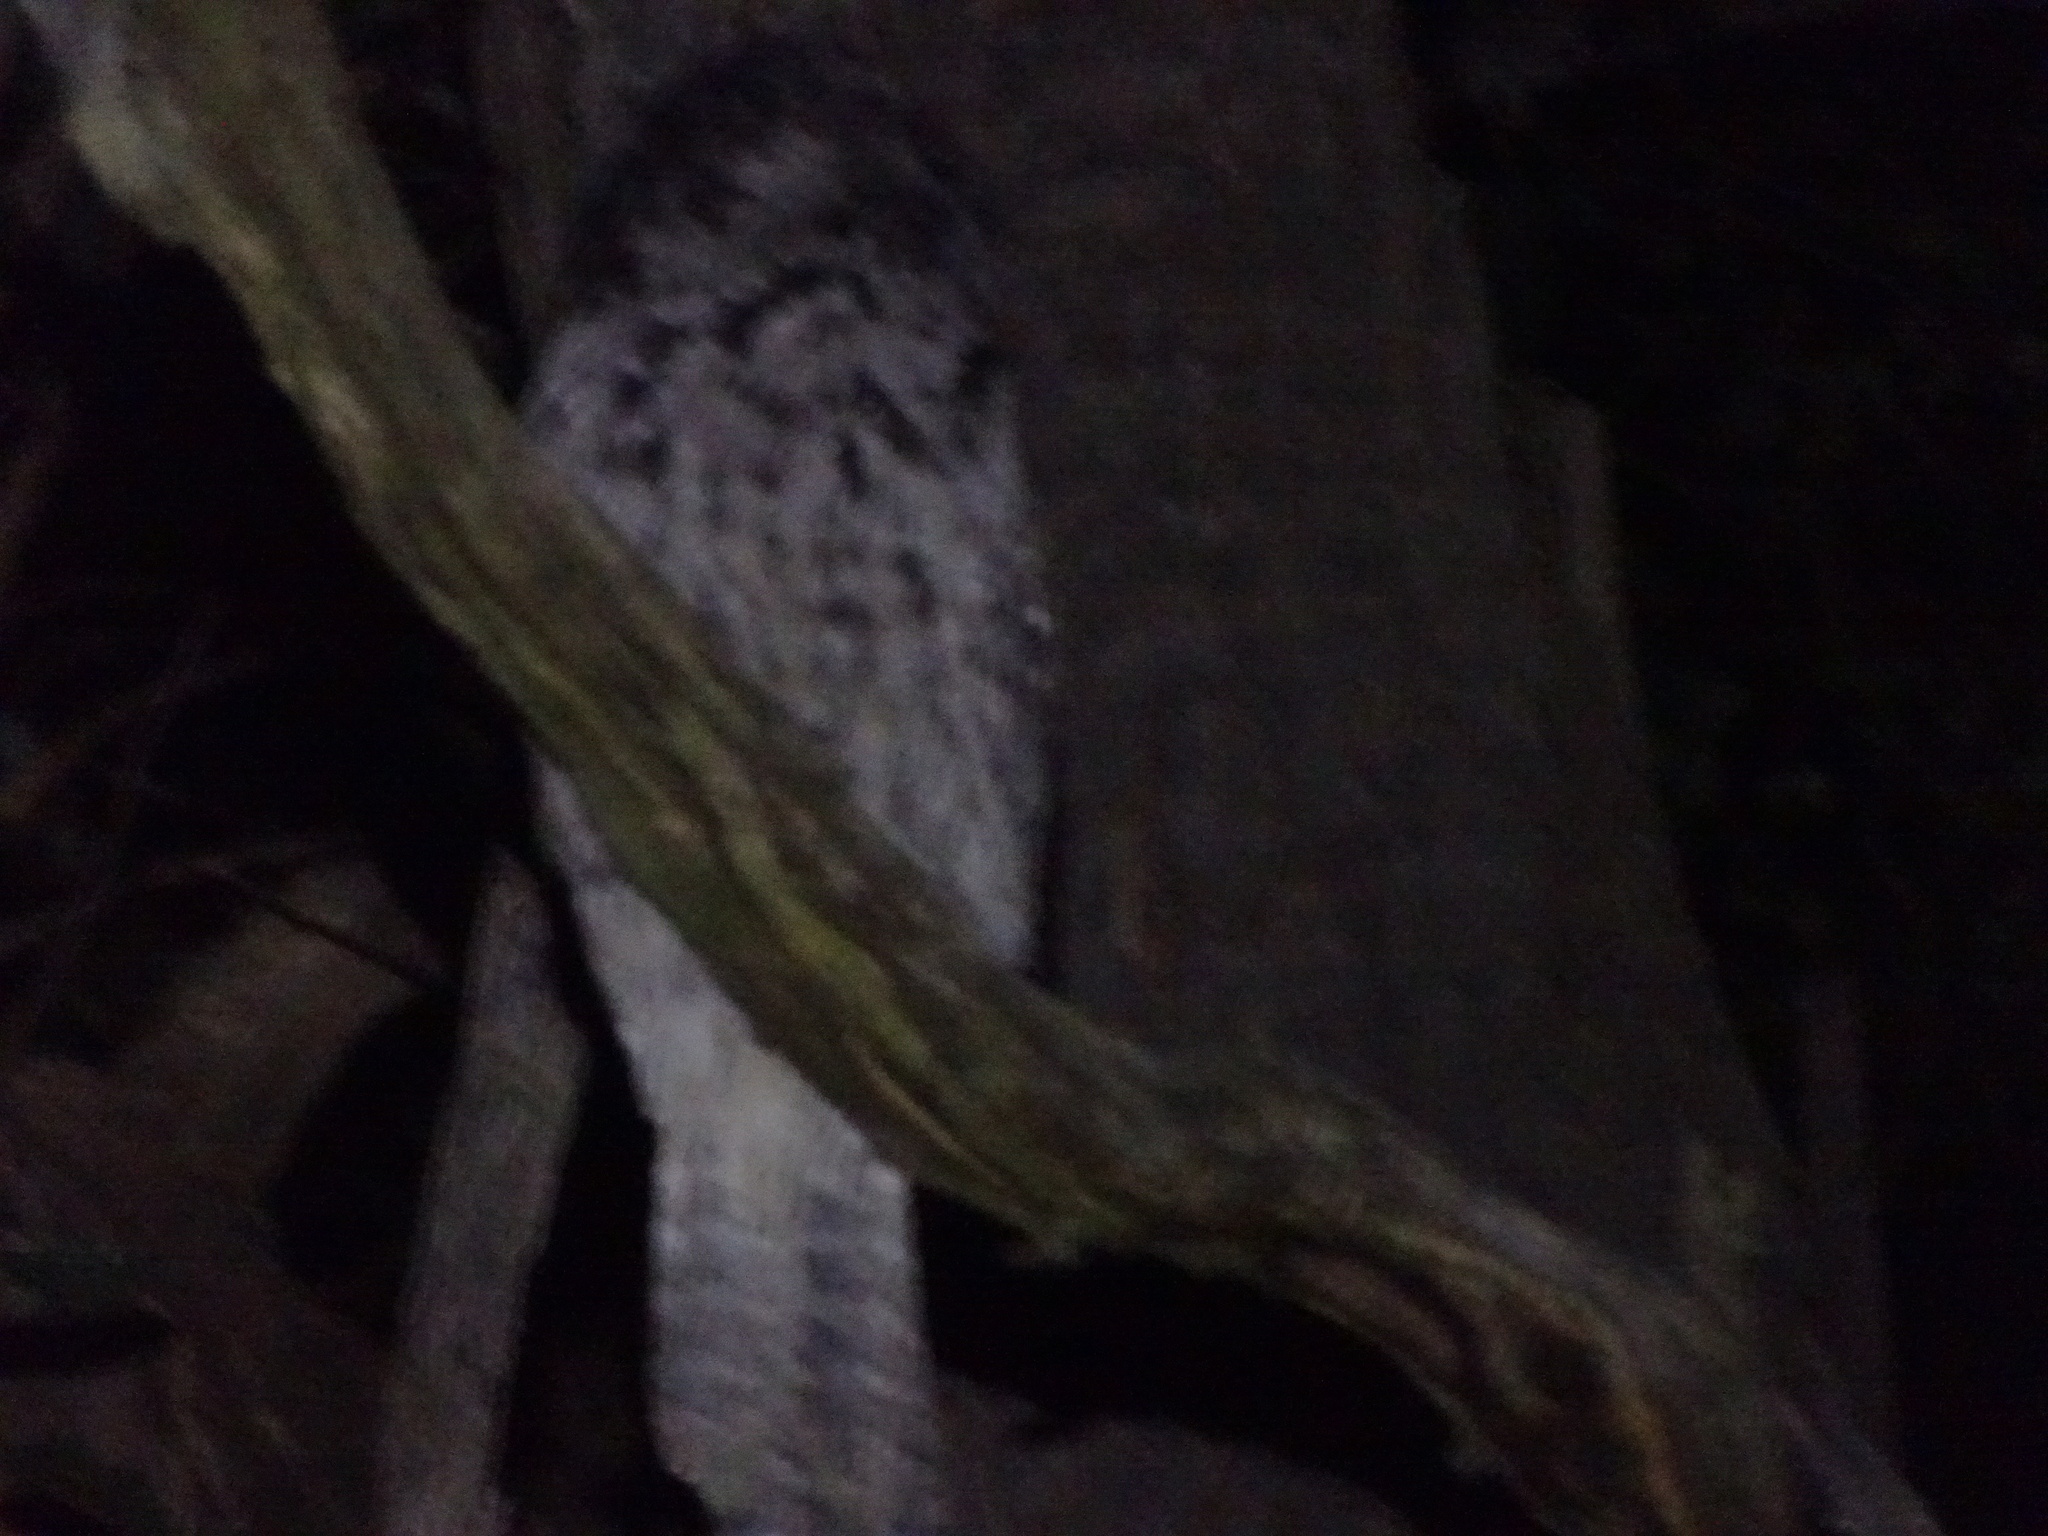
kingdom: Animalia
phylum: Chordata
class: Aves
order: Caprimulgiformes
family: Podargidae
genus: Podargus
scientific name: Podargus strigoides
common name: Tawny frogmouth
